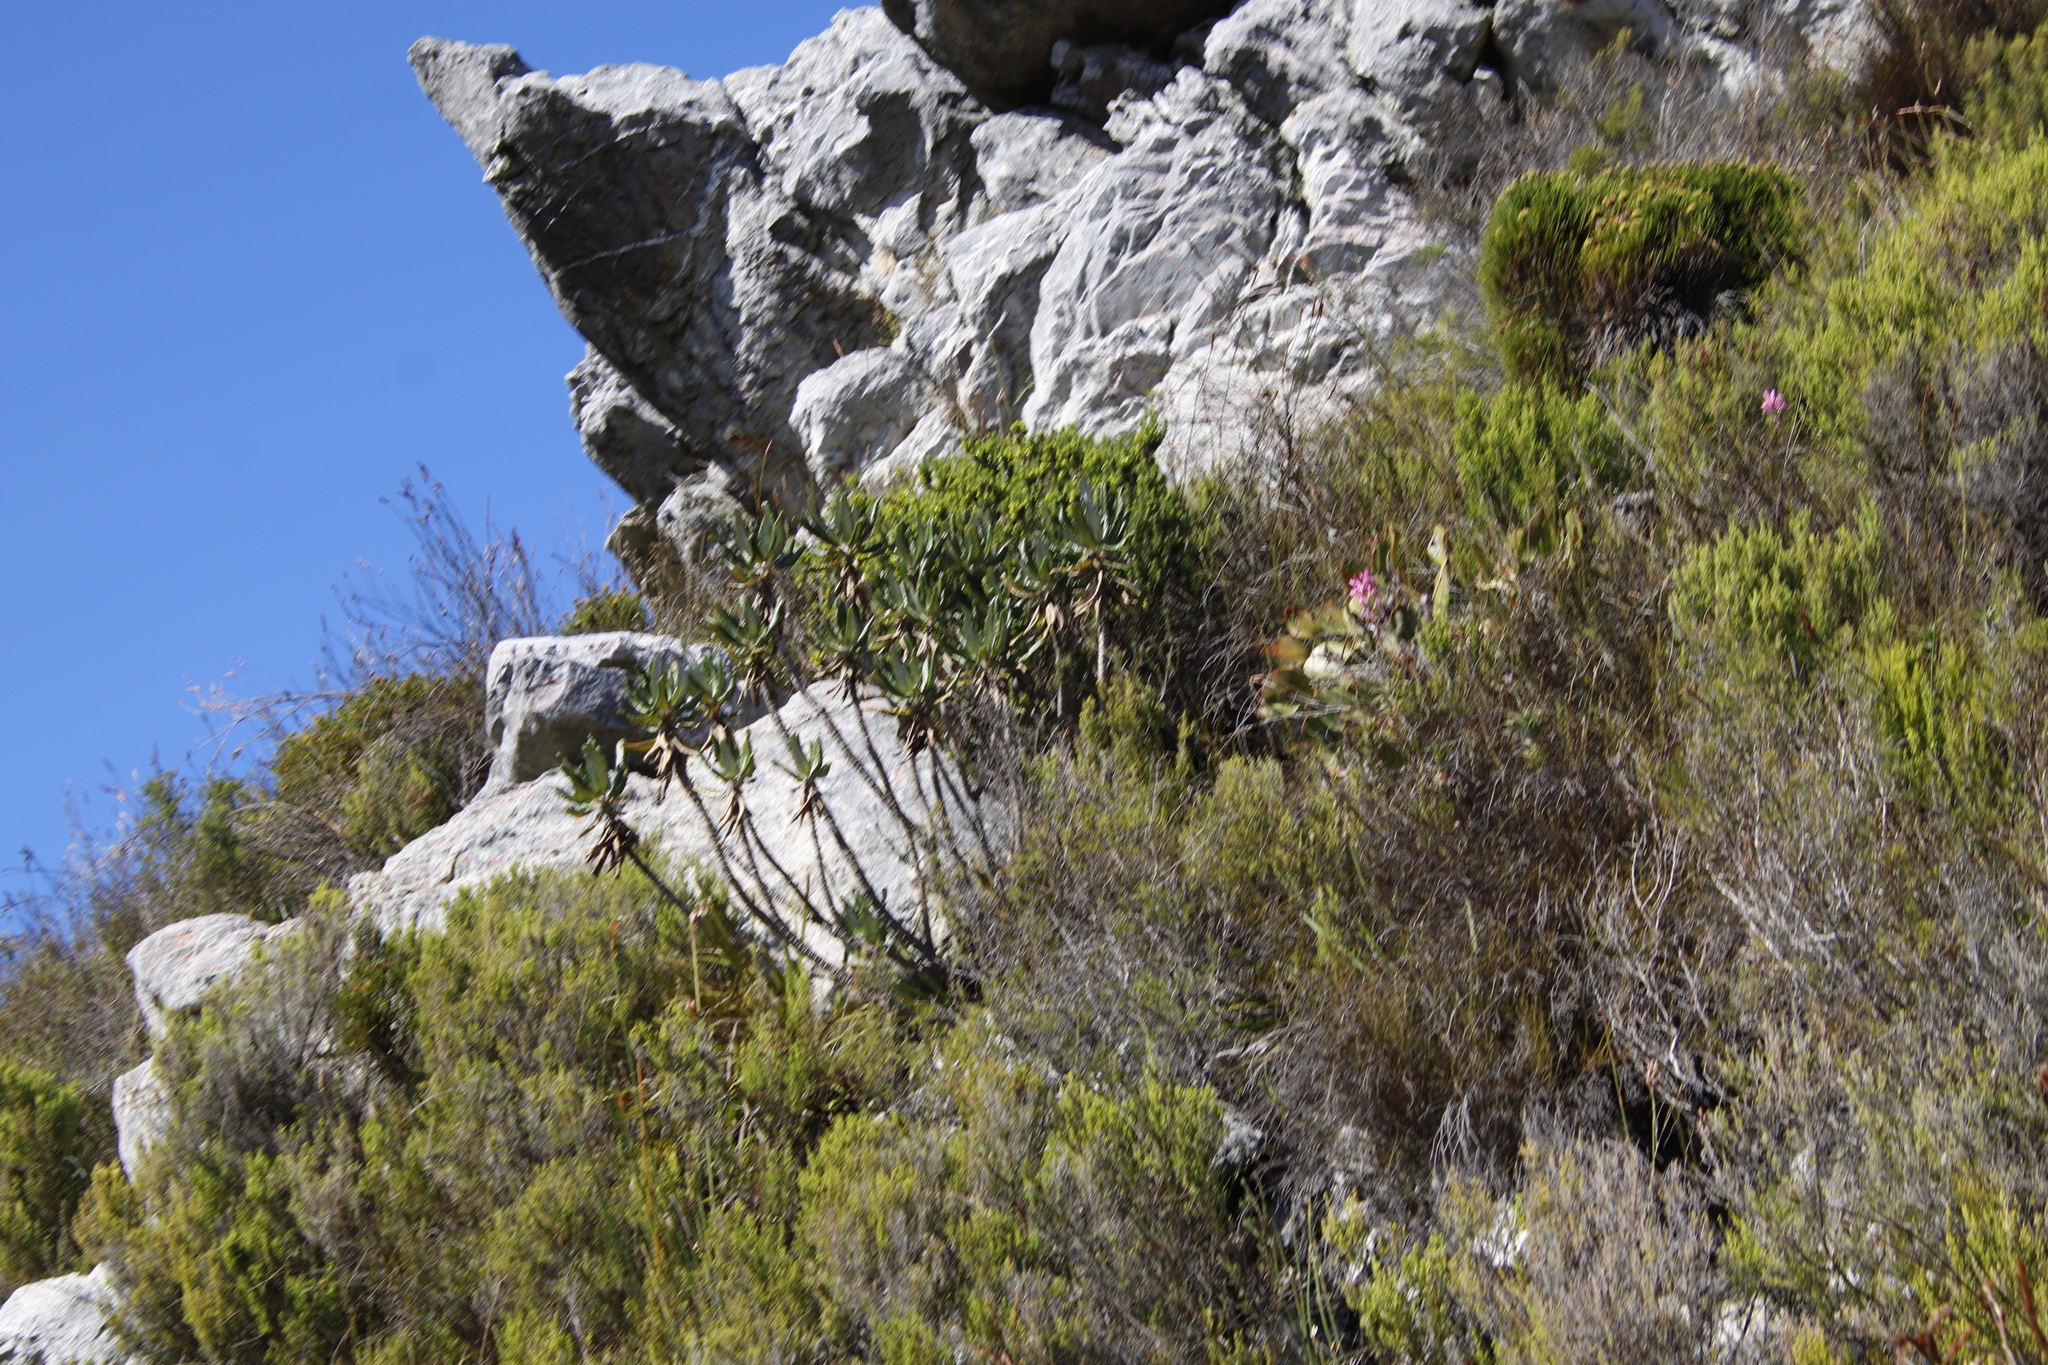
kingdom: Plantae
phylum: Tracheophyta
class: Magnoliopsida
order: Apiales
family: Apiaceae
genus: Hermas
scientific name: Hermas villosa
